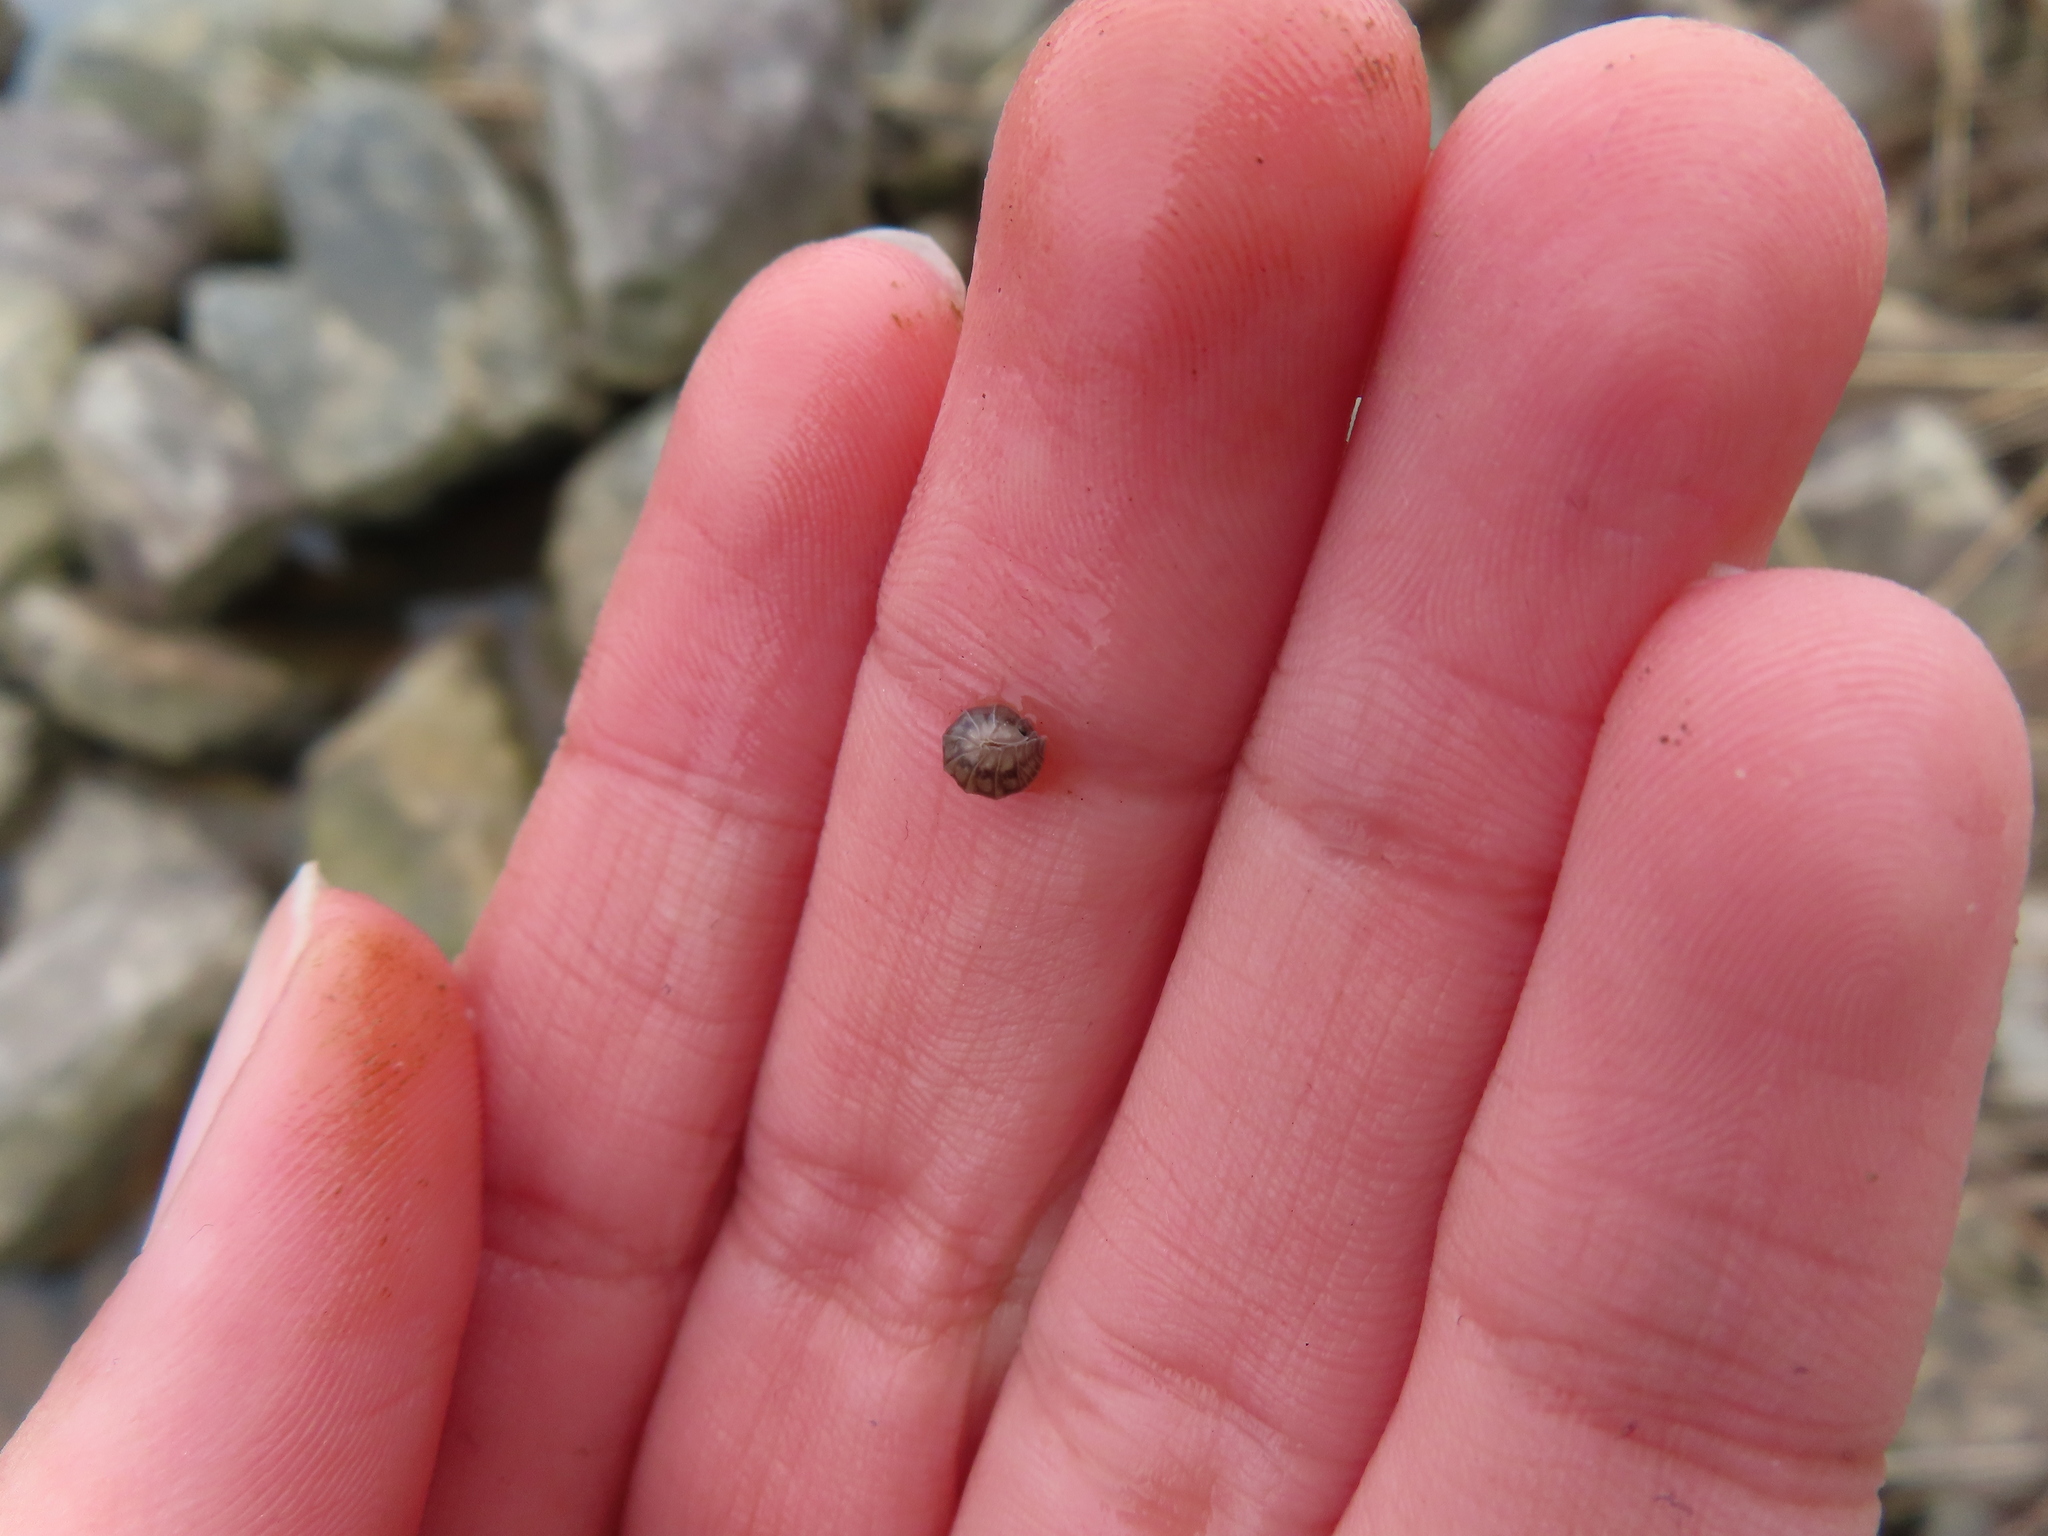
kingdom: Animalia
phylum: Arthropoda
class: Malacostraca
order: Isopoda
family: Armadillidiidae
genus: Armadillidium
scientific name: Armadillidium nasatum
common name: Isopod
